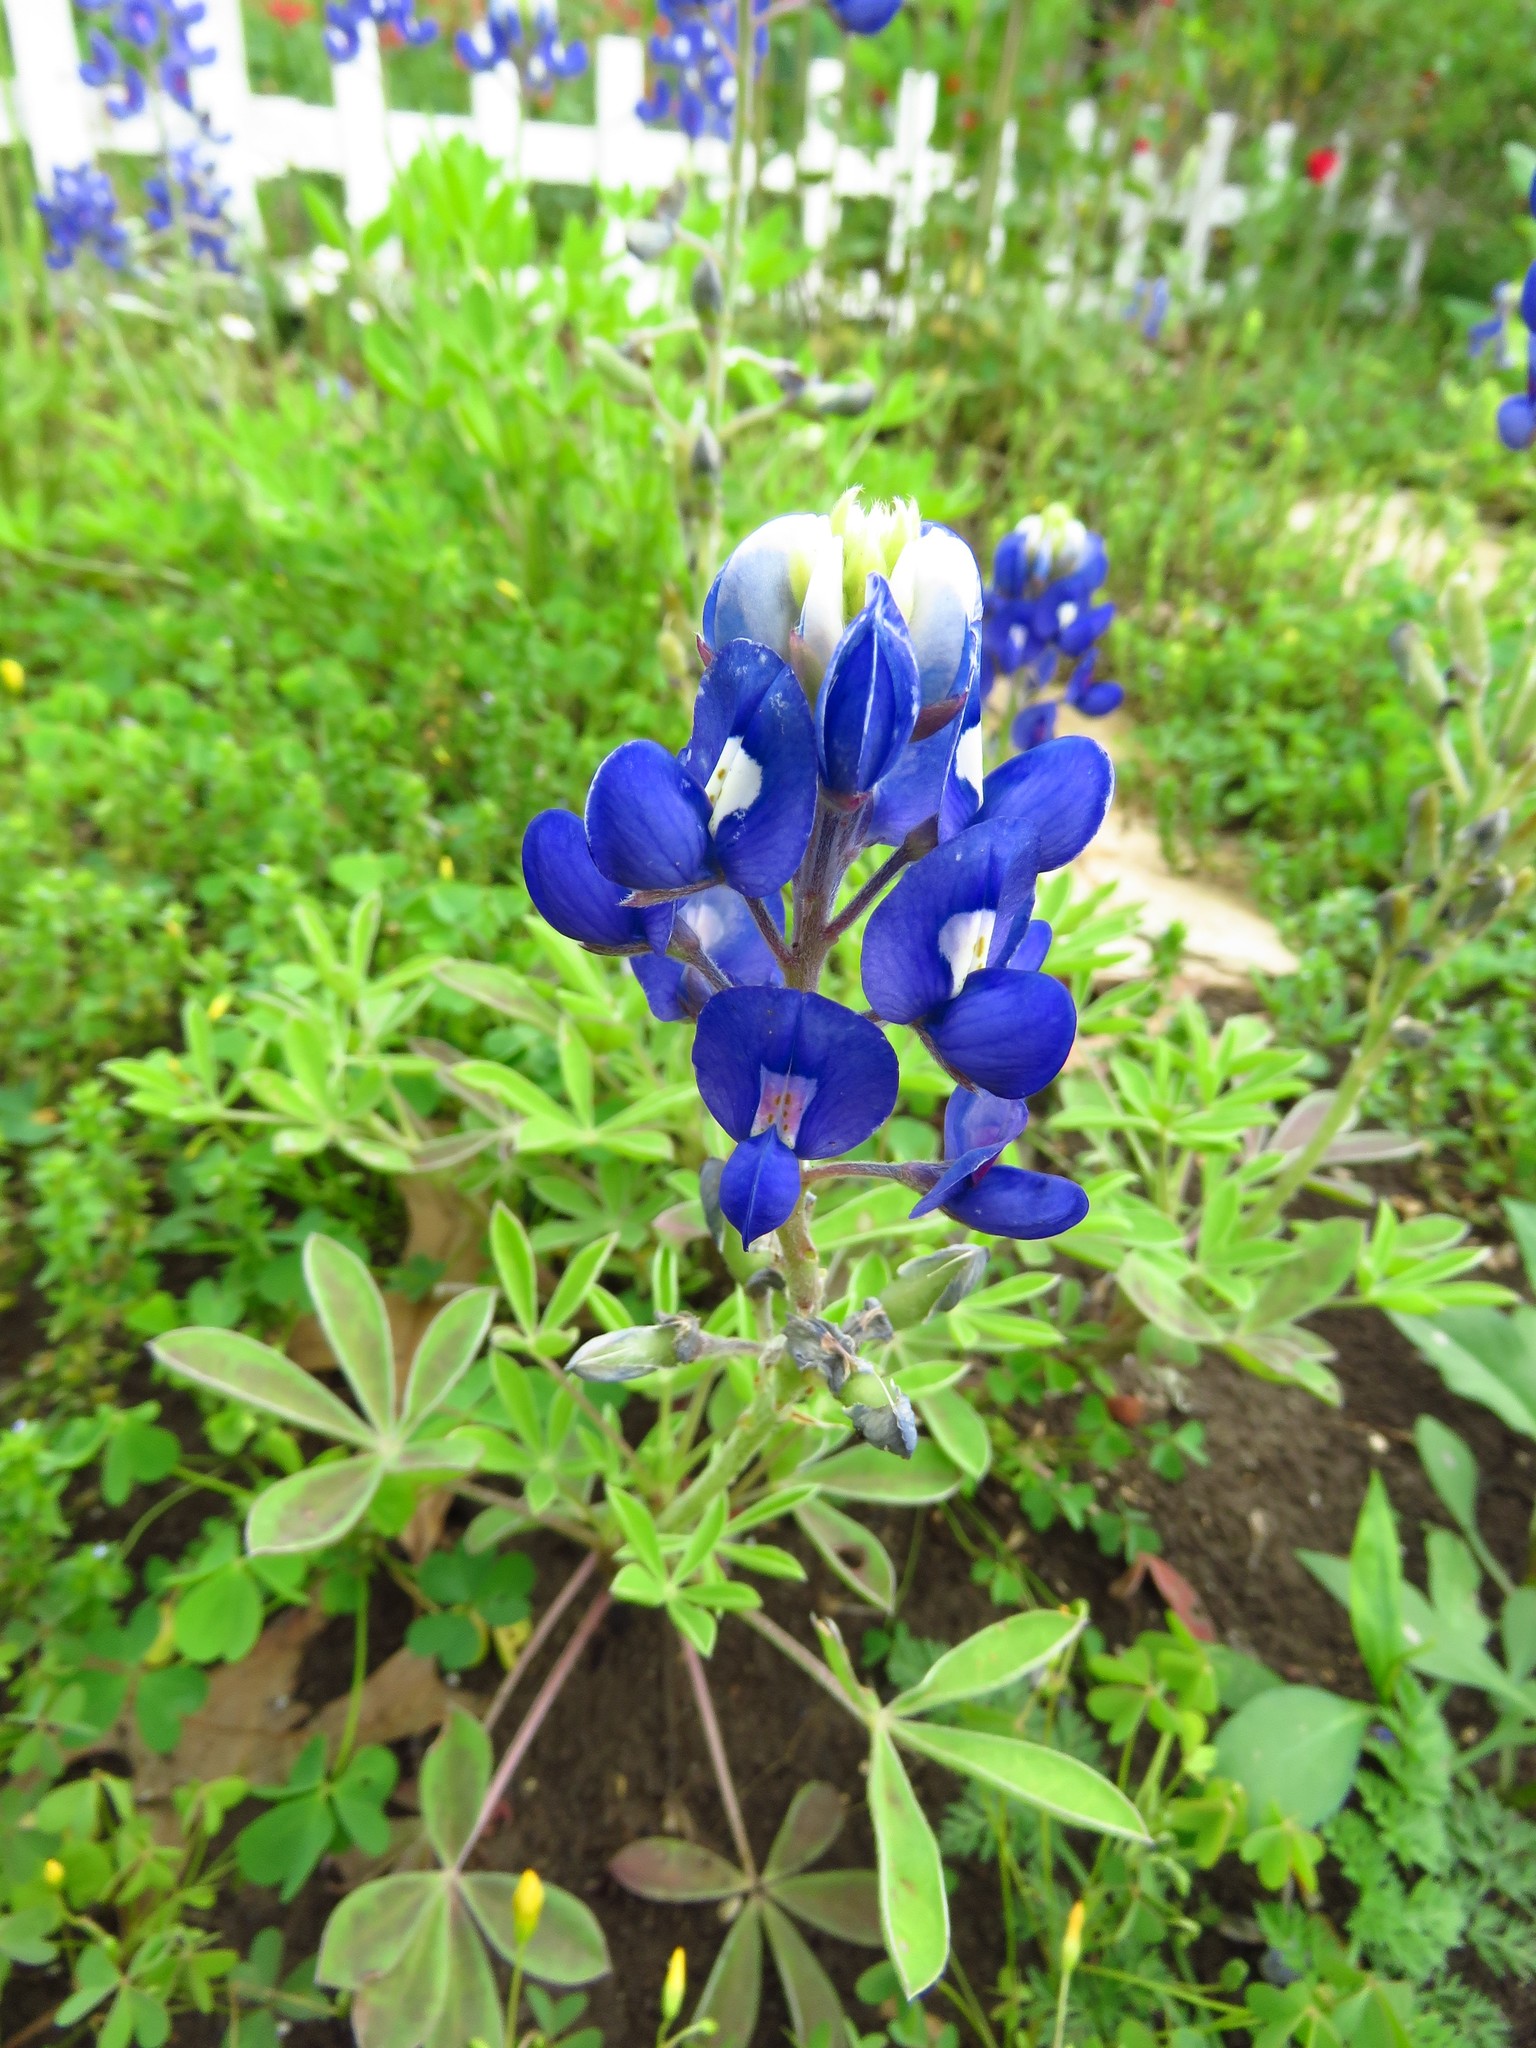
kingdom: Plantae
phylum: Tracheophyta
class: Magnoliopsida
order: Fabales
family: Fabaceae
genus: Lupinus
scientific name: Lupinus texensis
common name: Texas bluebonnet
